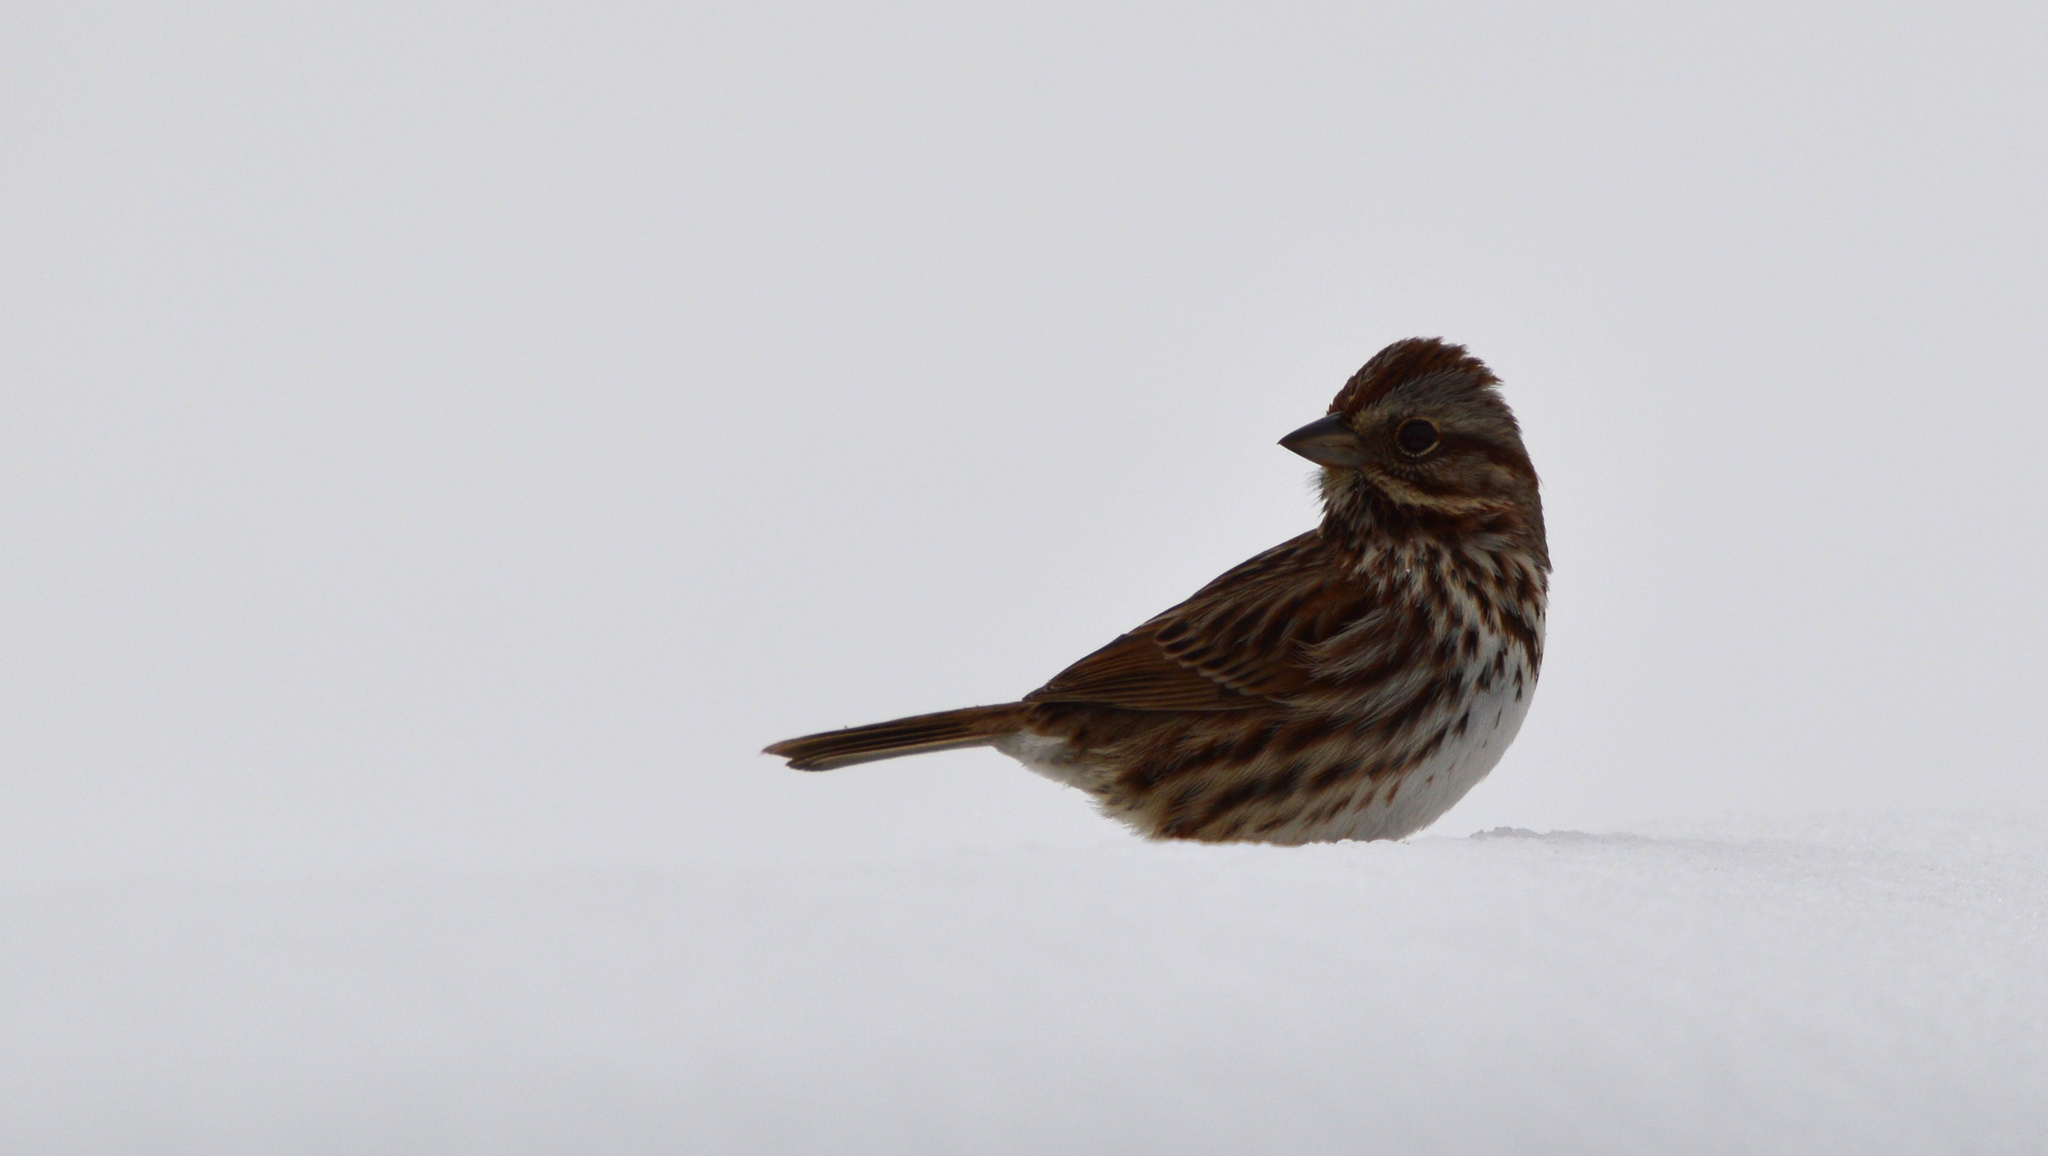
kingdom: Animalia
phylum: Chordata
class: Aves
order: Passeriformes
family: Passerellidae
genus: Melospiza
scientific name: Melospiza melodia
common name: Song sparrow
